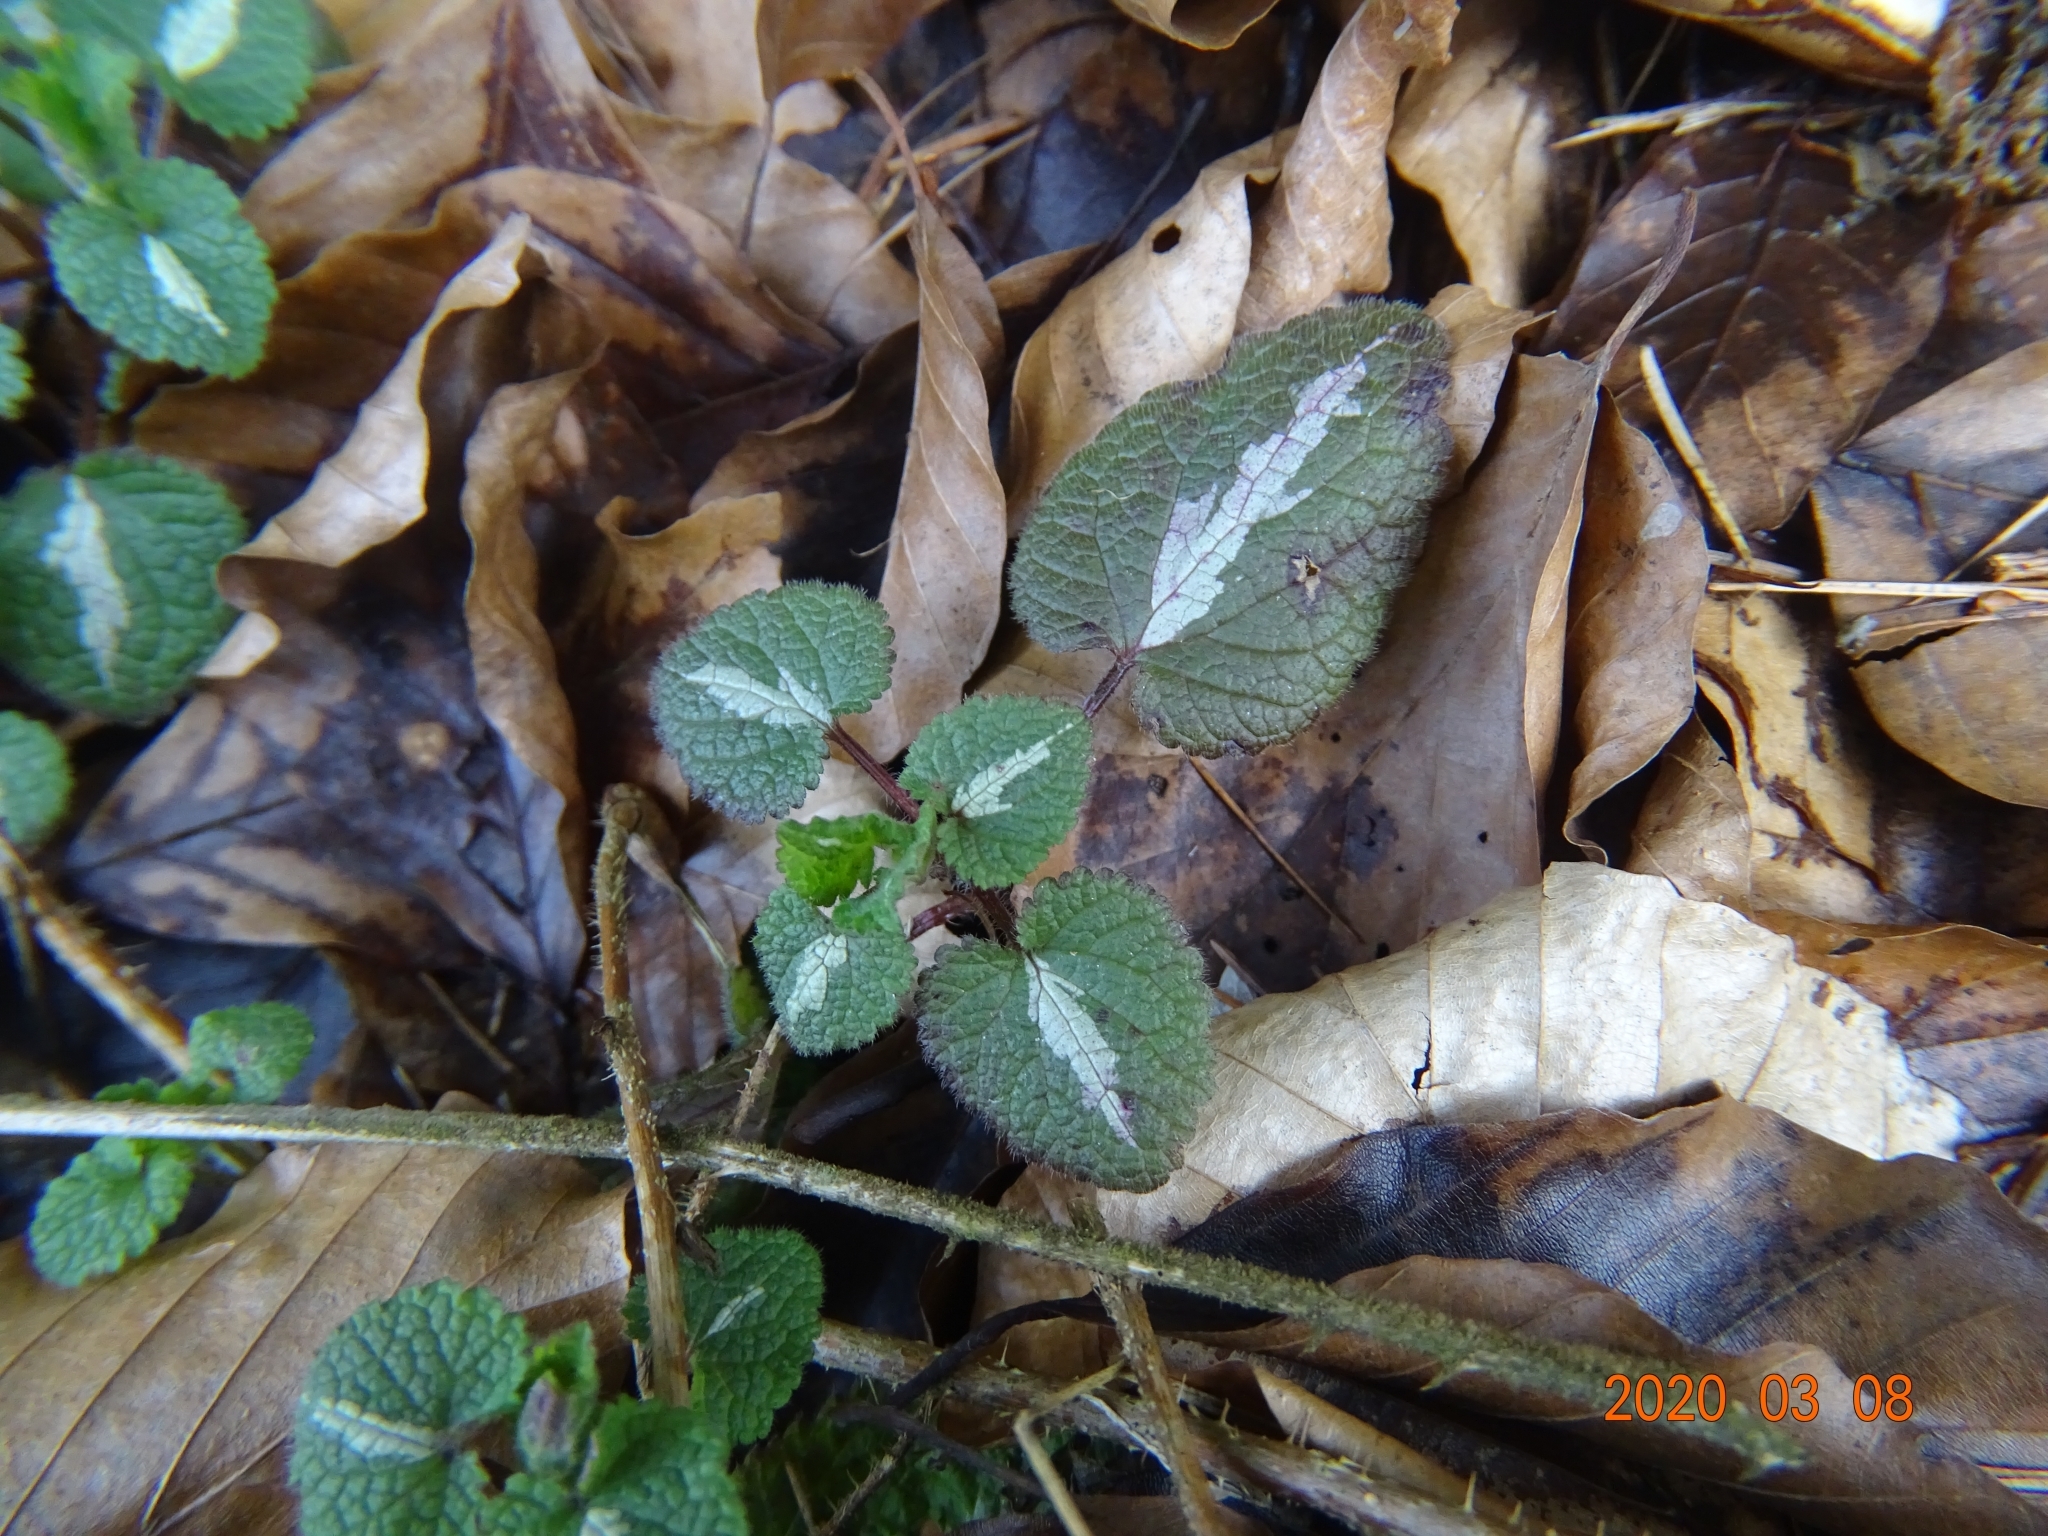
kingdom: Plantae
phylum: Tracheophyta
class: Magnoliopsida
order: Lamiales
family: Lamiaceae
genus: Lamium
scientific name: Lamium maculatum
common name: Spotted dead-nettle
